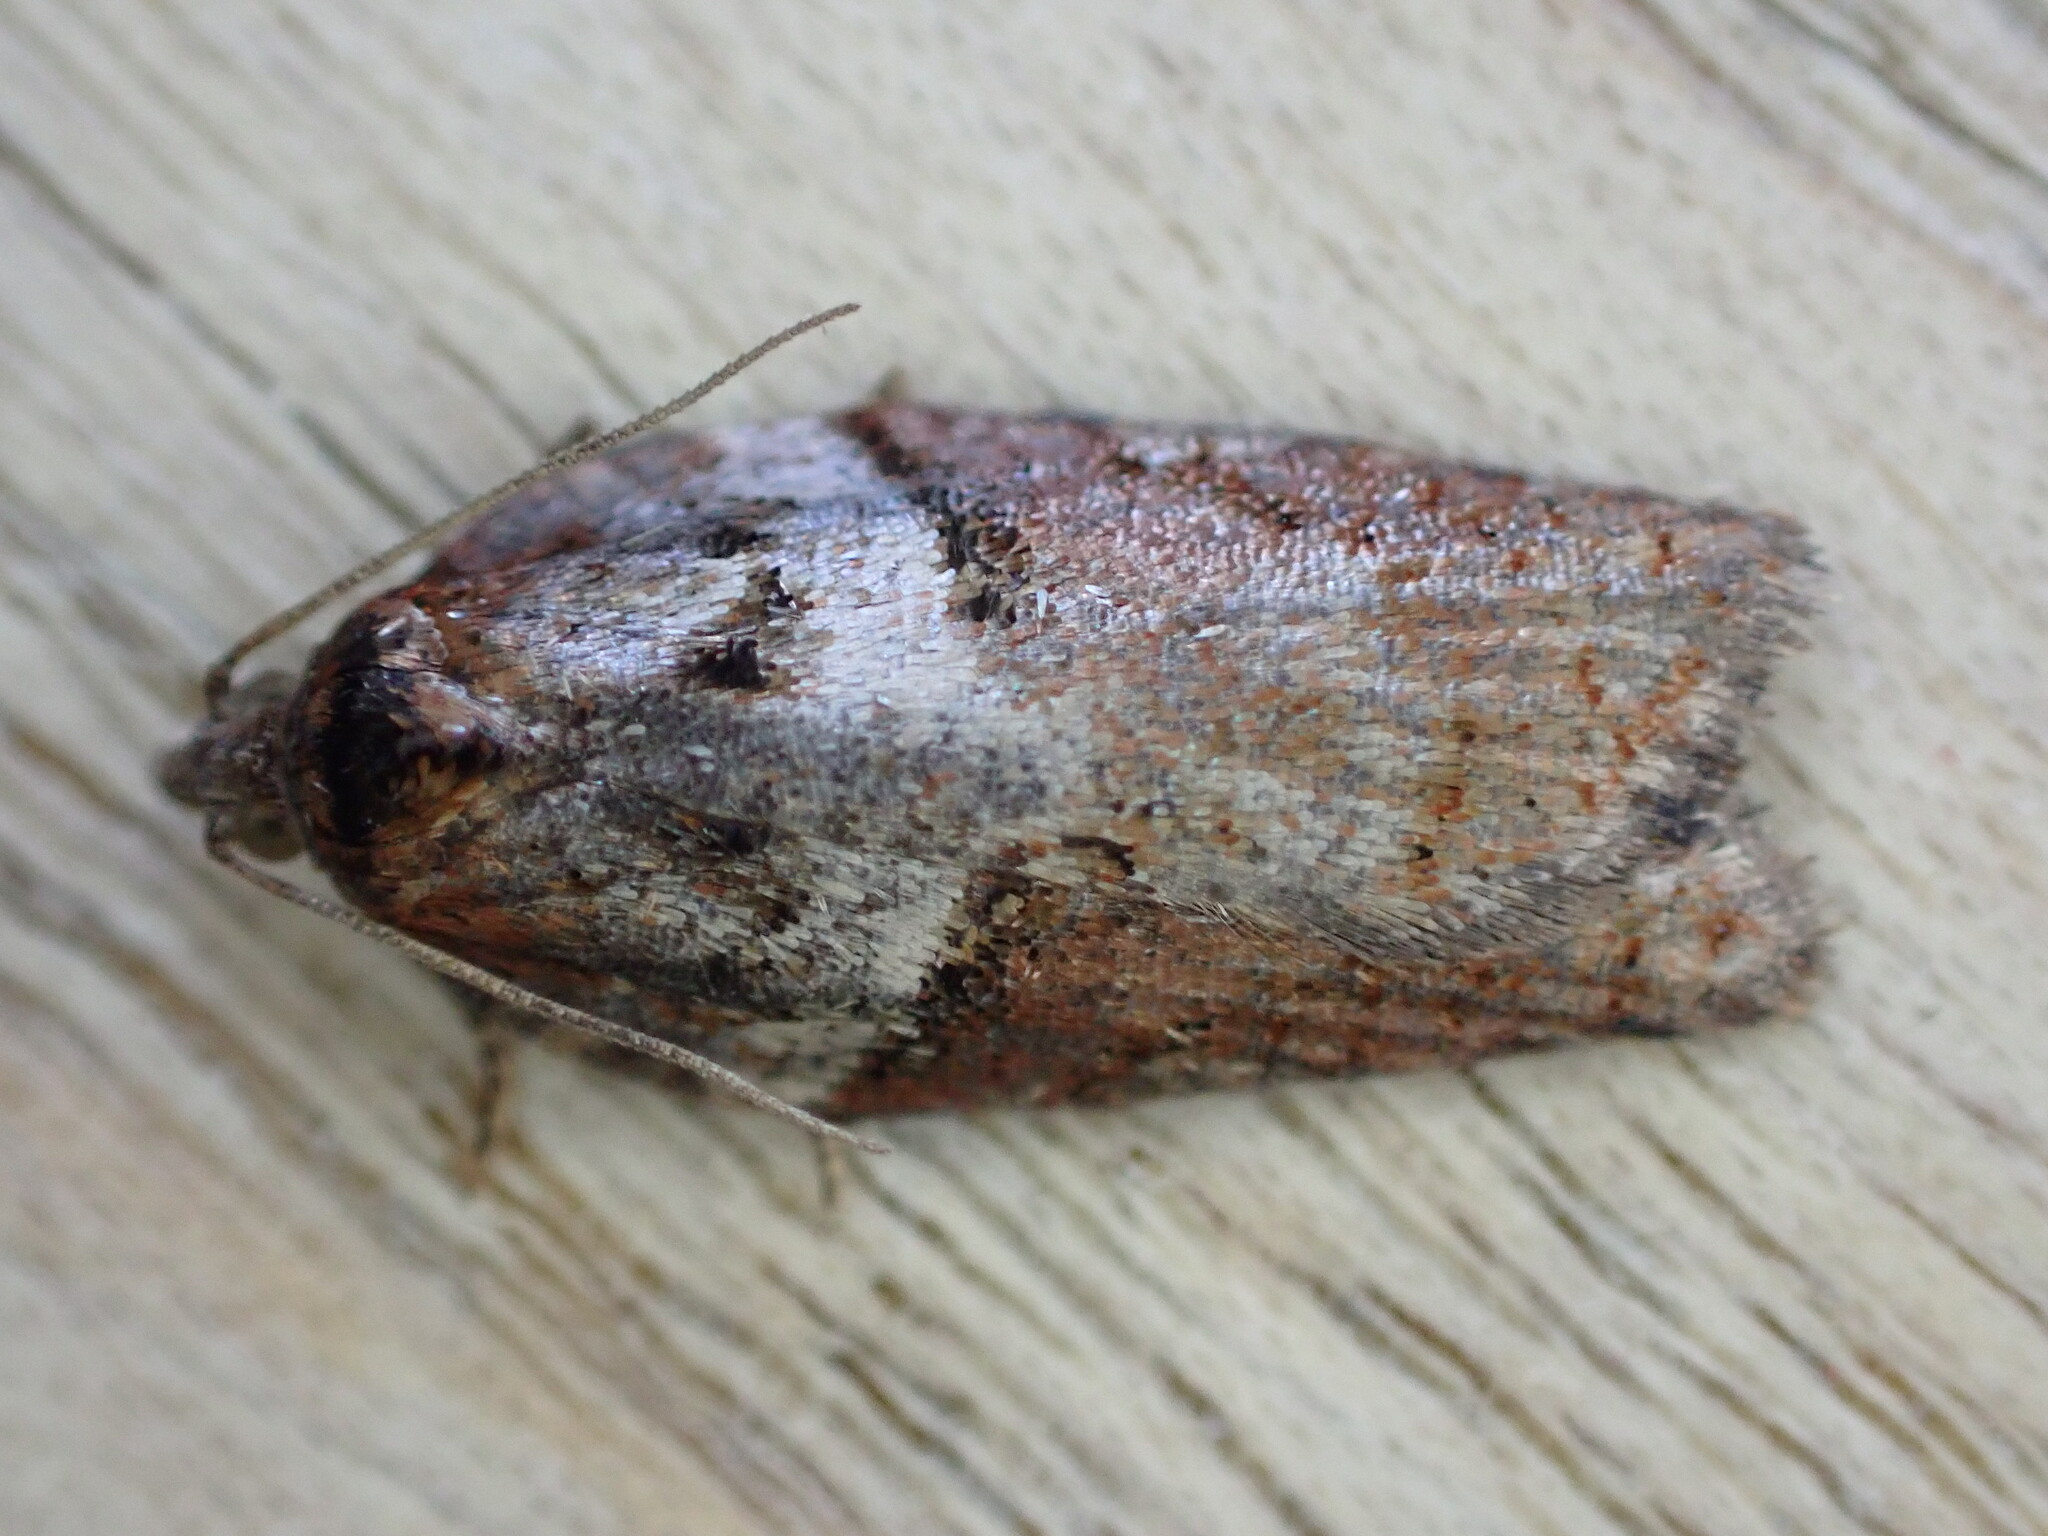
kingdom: Animalia
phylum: Arthropoda
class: Insecta
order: Lepidoptera
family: Tortricidae
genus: Acleris
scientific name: Acleris hastiana
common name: Sallow button
